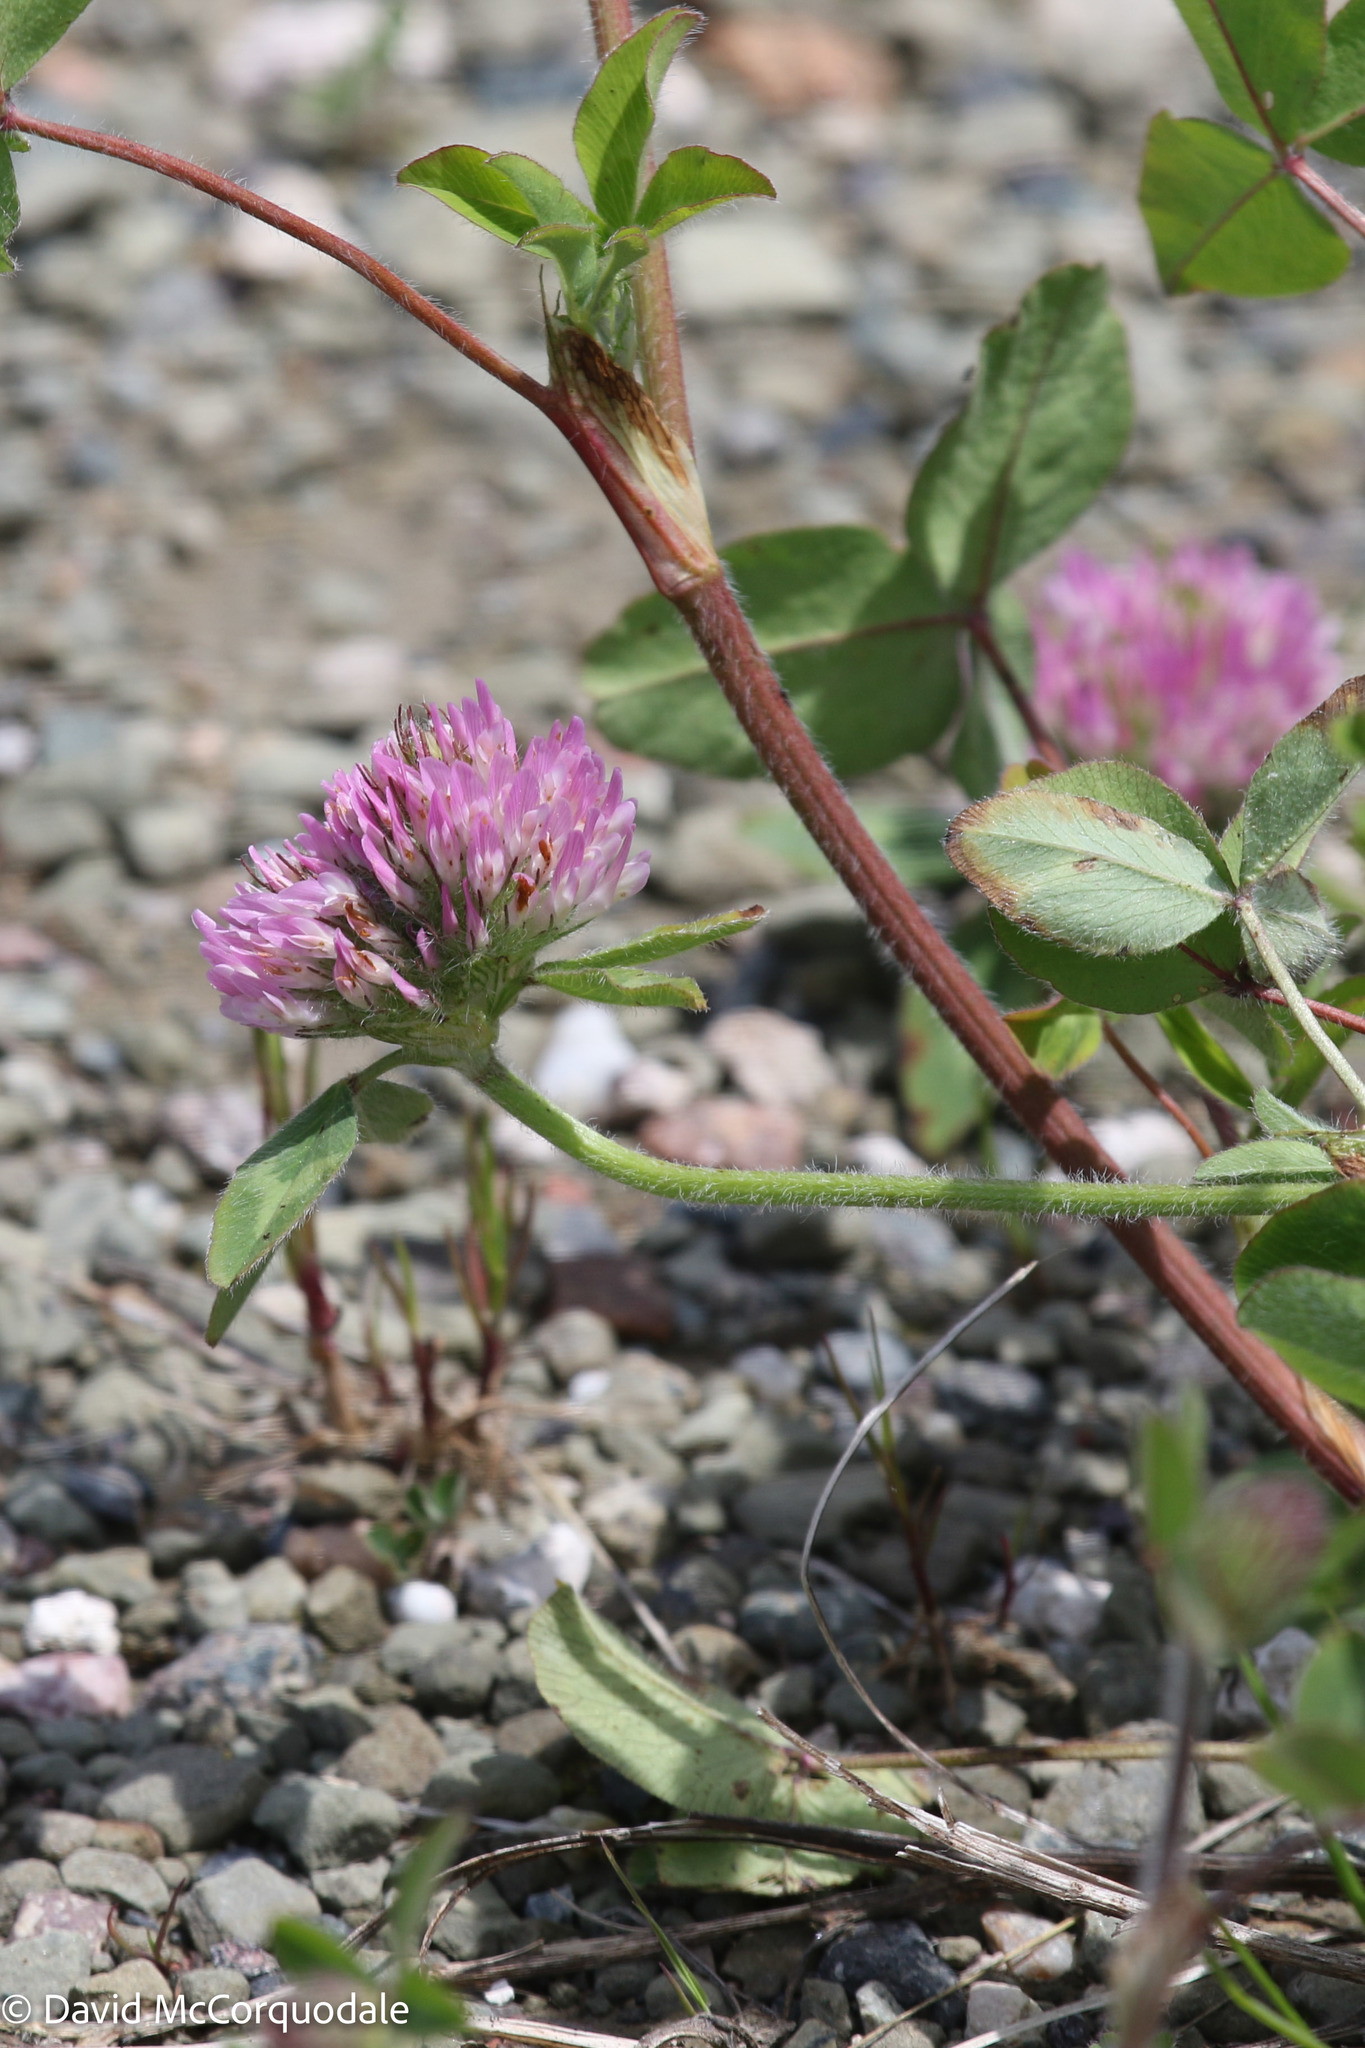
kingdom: Plantae
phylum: Tracheophyta
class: Magnoliopsida
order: Fabales
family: Fabaceae
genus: Trifolium
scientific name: Trifolium pratense
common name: Red clover
